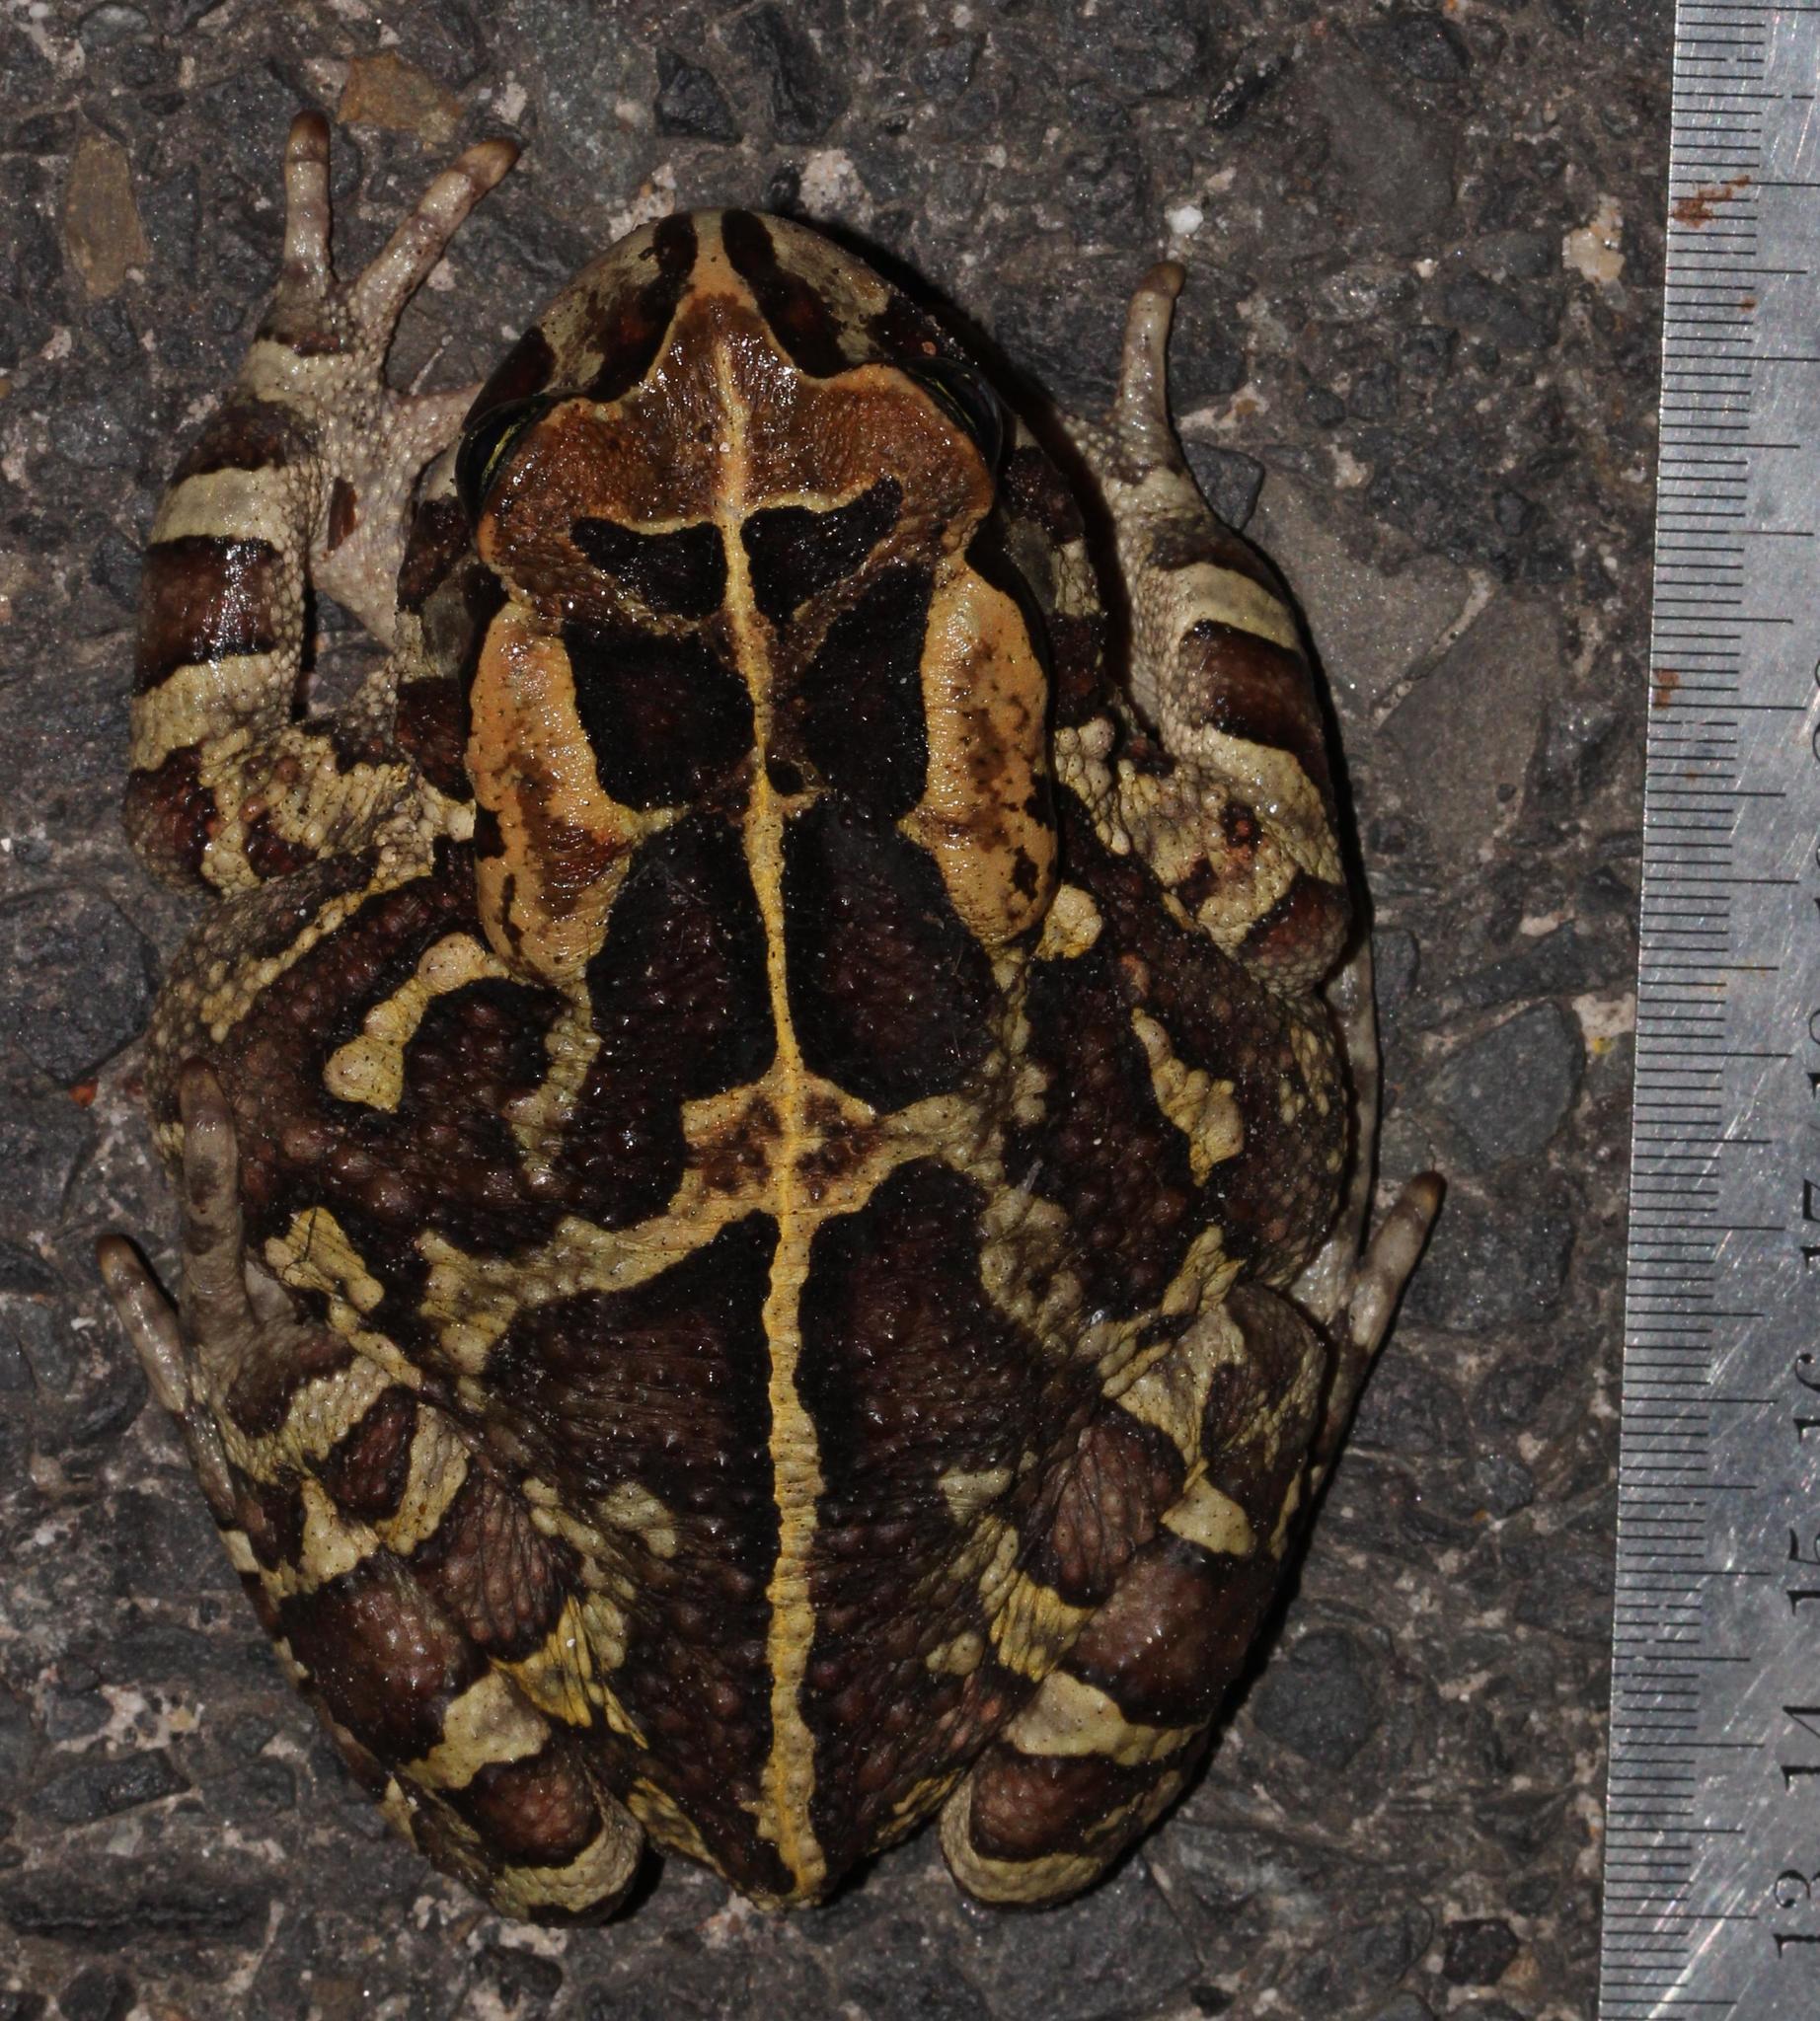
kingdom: Animalia
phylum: Chordata
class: Amphibia
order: Anura
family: Bufonidae
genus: Sclerophrys
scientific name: Sclerophrys pantherina
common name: Panther toad
